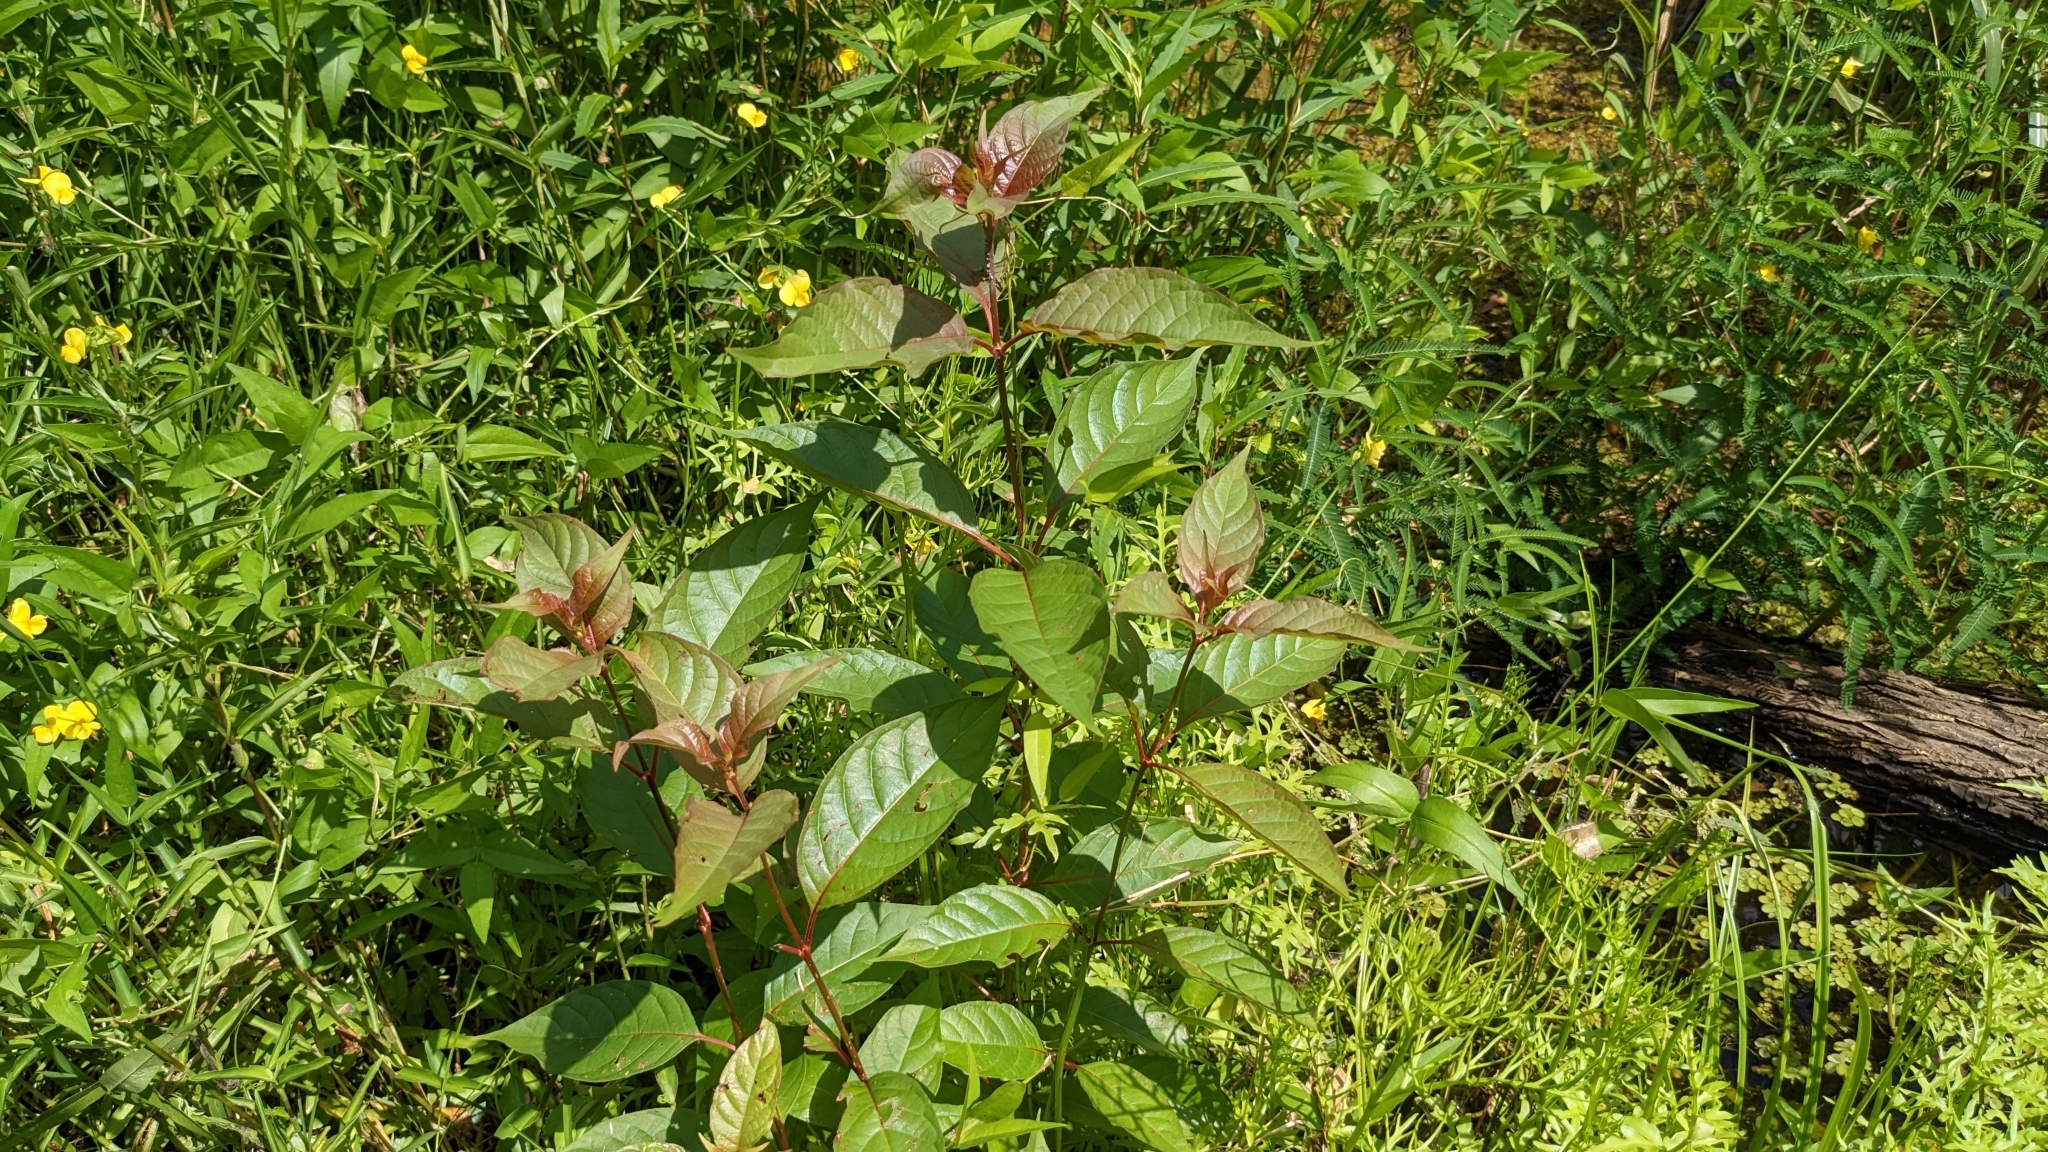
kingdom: Plantae
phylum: Tracheophyta
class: Magnoliopsida
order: Gentianales
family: Rubiaceae
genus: Cephalanthus
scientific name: Cephalanthus occidentalis
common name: Button-willow
